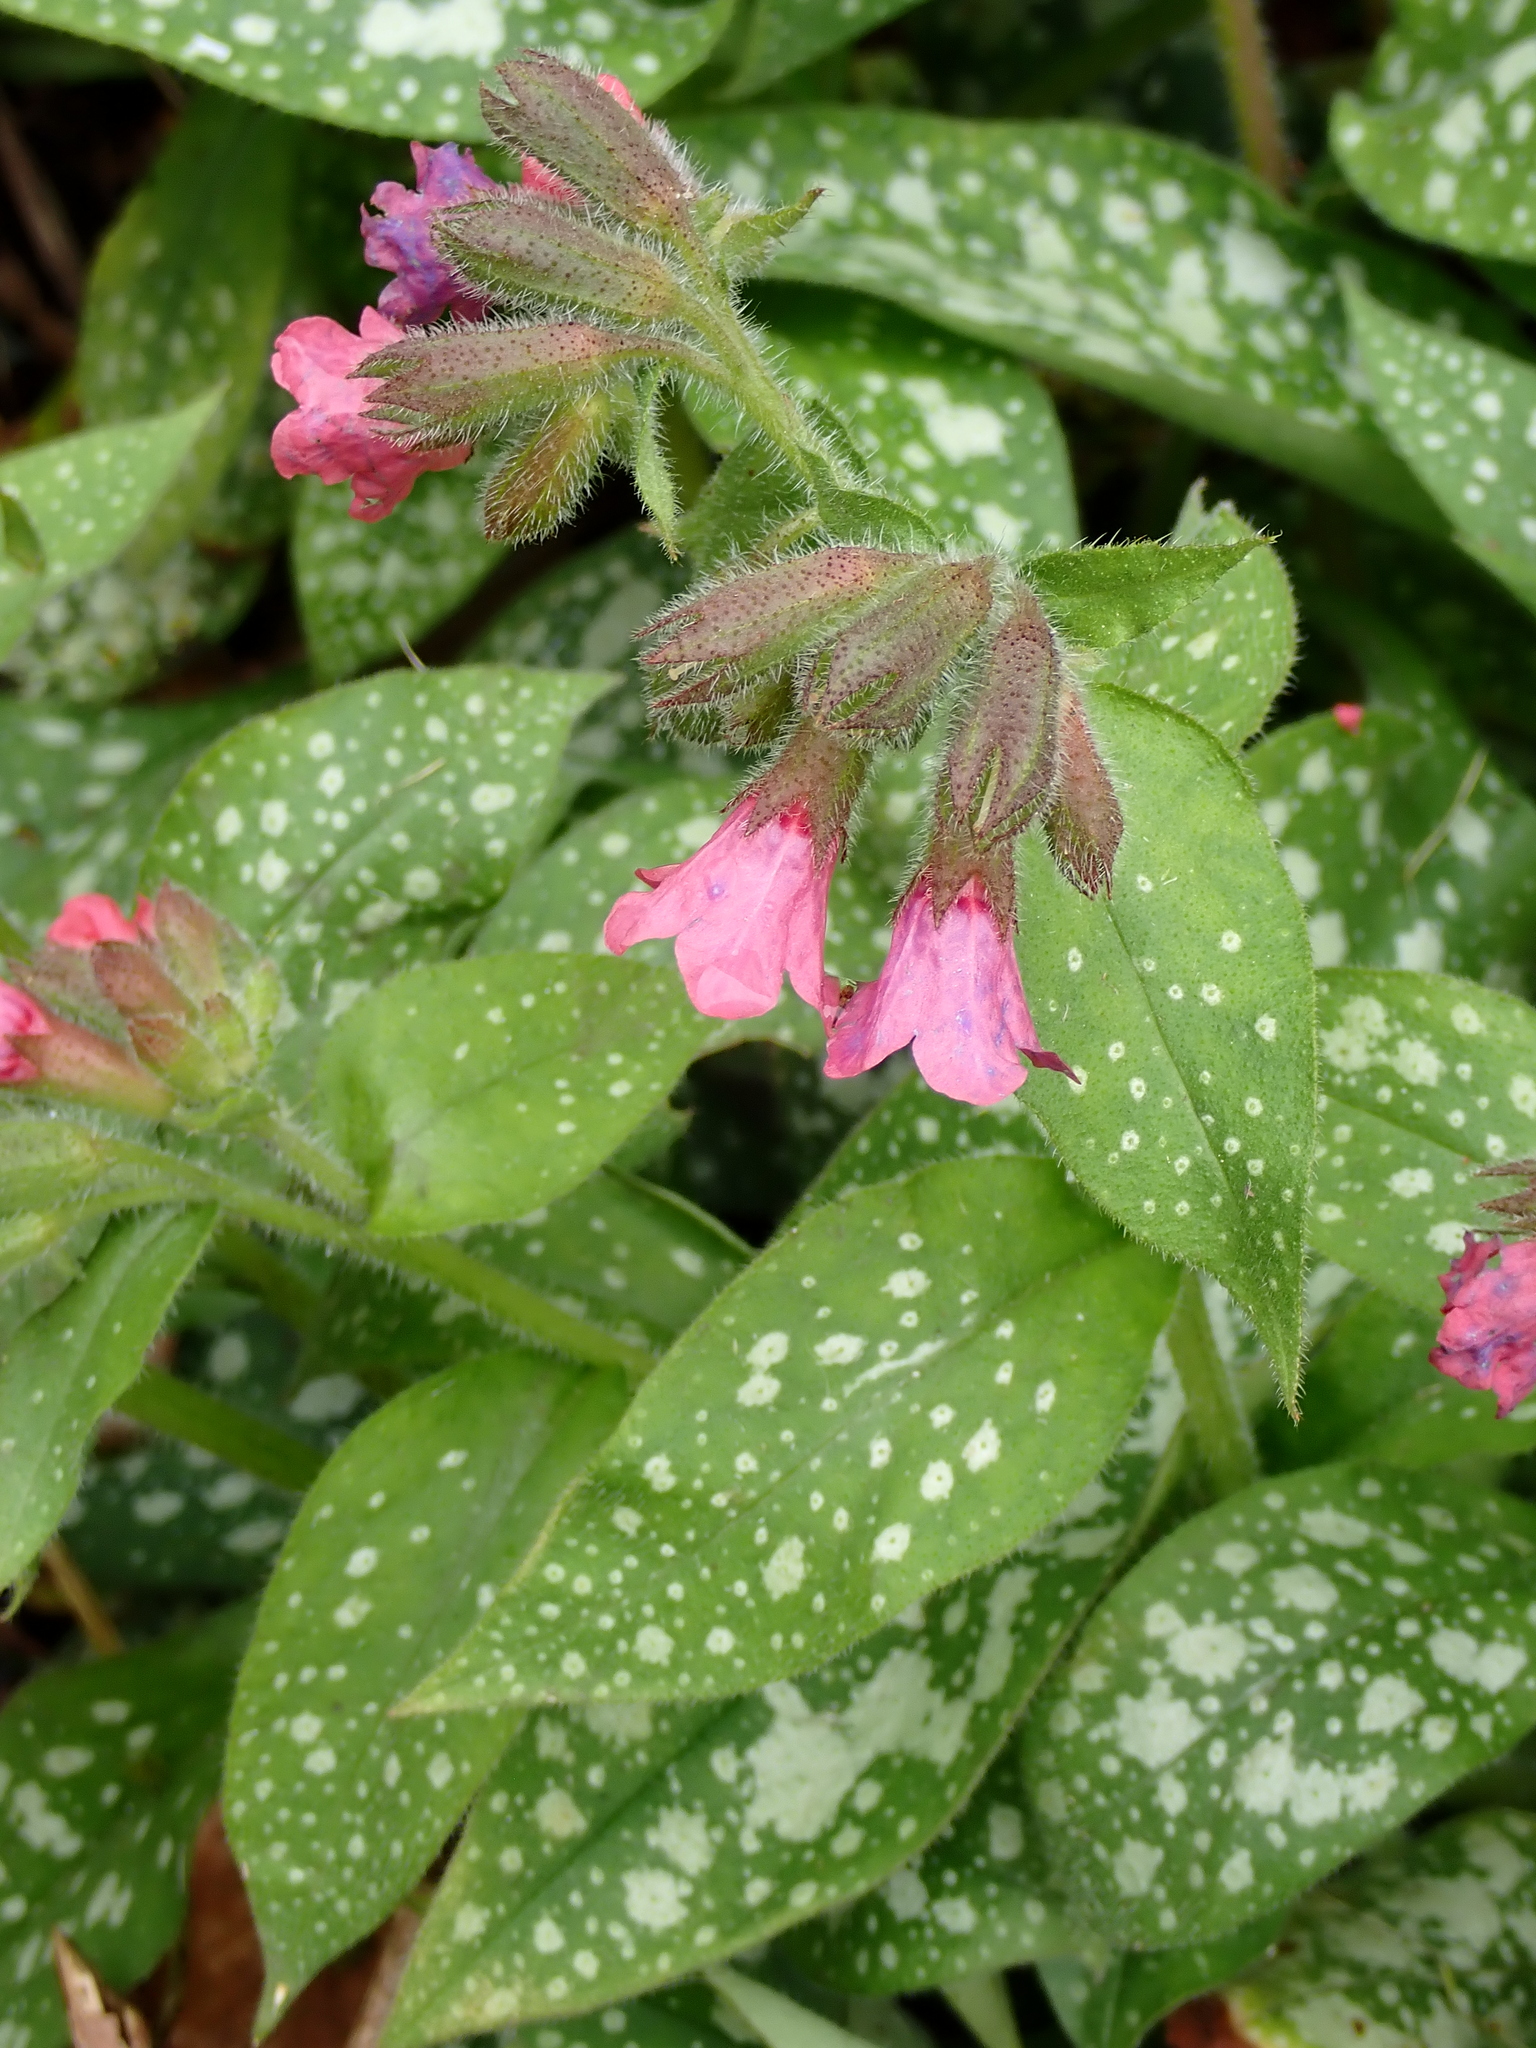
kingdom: Plantae
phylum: Tracheophyta
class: Magnoliopsida
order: Boraginales
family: Boraginaceae
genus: Pulmonaria
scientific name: Pulmonaria officinalis
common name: Lungwort
